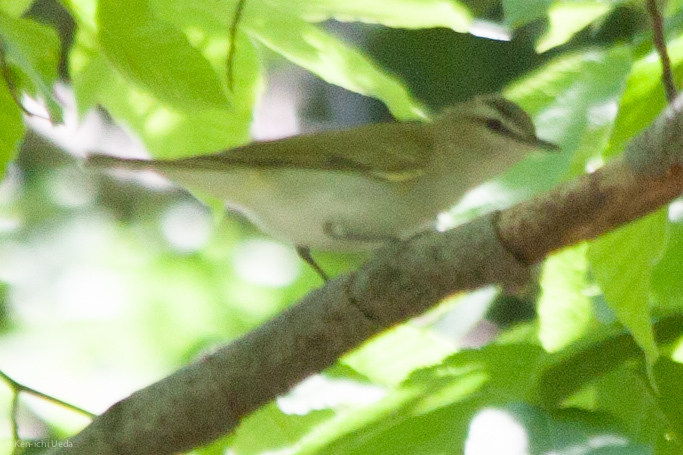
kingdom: Animalia
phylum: Chordata
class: Aves
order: Passeriformes
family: Vireonidae
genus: Vireo
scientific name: Vireo olivaceus
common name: Red-eyed vireo
